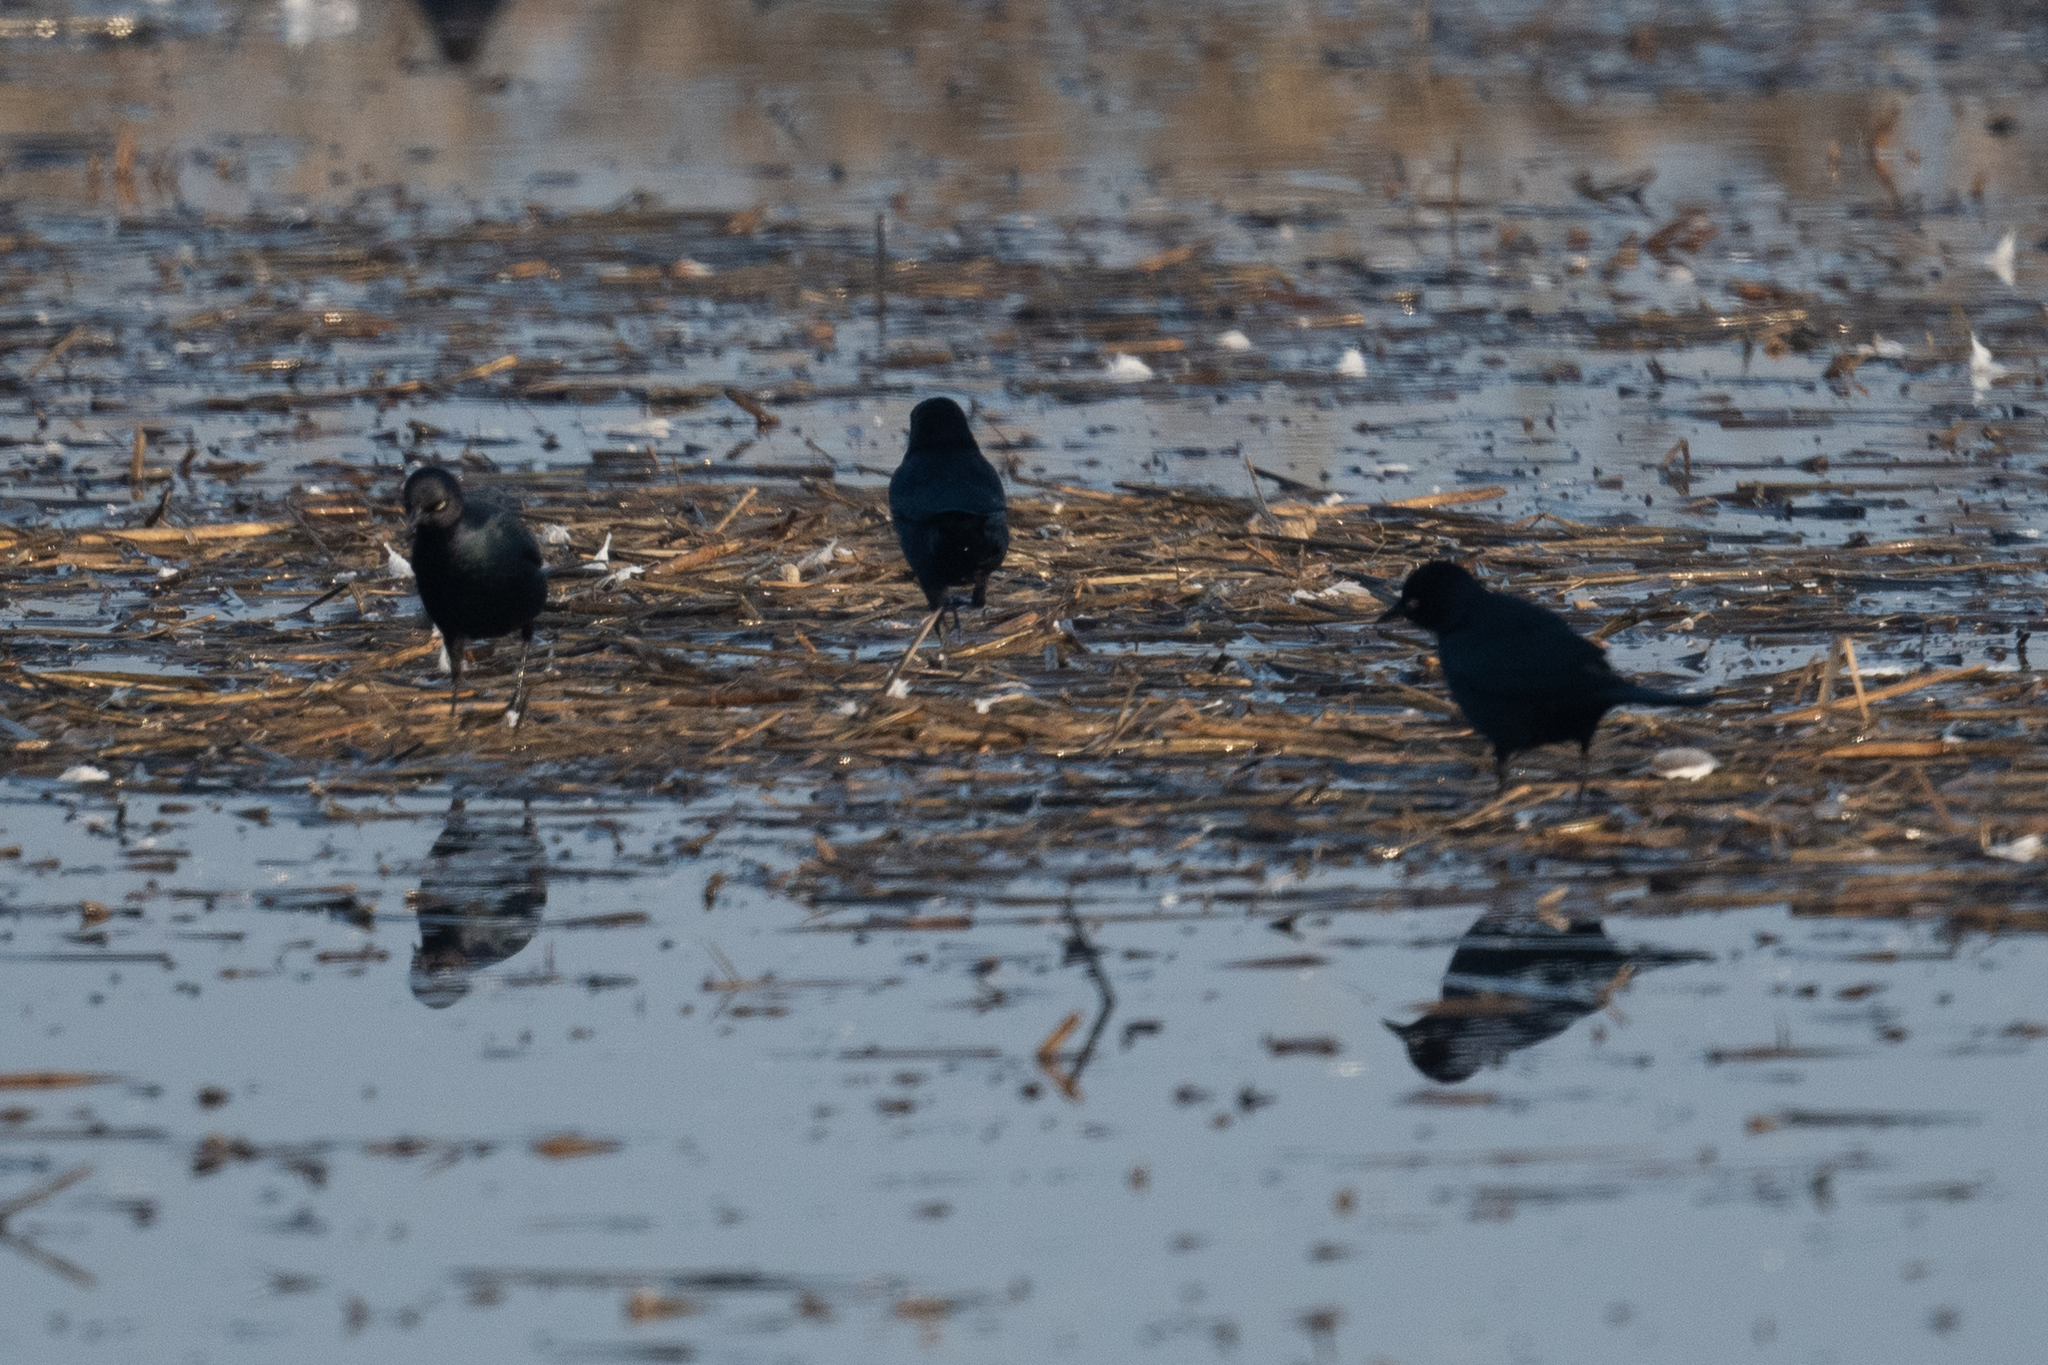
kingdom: Animalia
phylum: Chordata
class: Aves
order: Passeriformes
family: Icteridae
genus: Euphagus
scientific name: Euphagus cyanocephalus
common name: Brewer's blackbird
